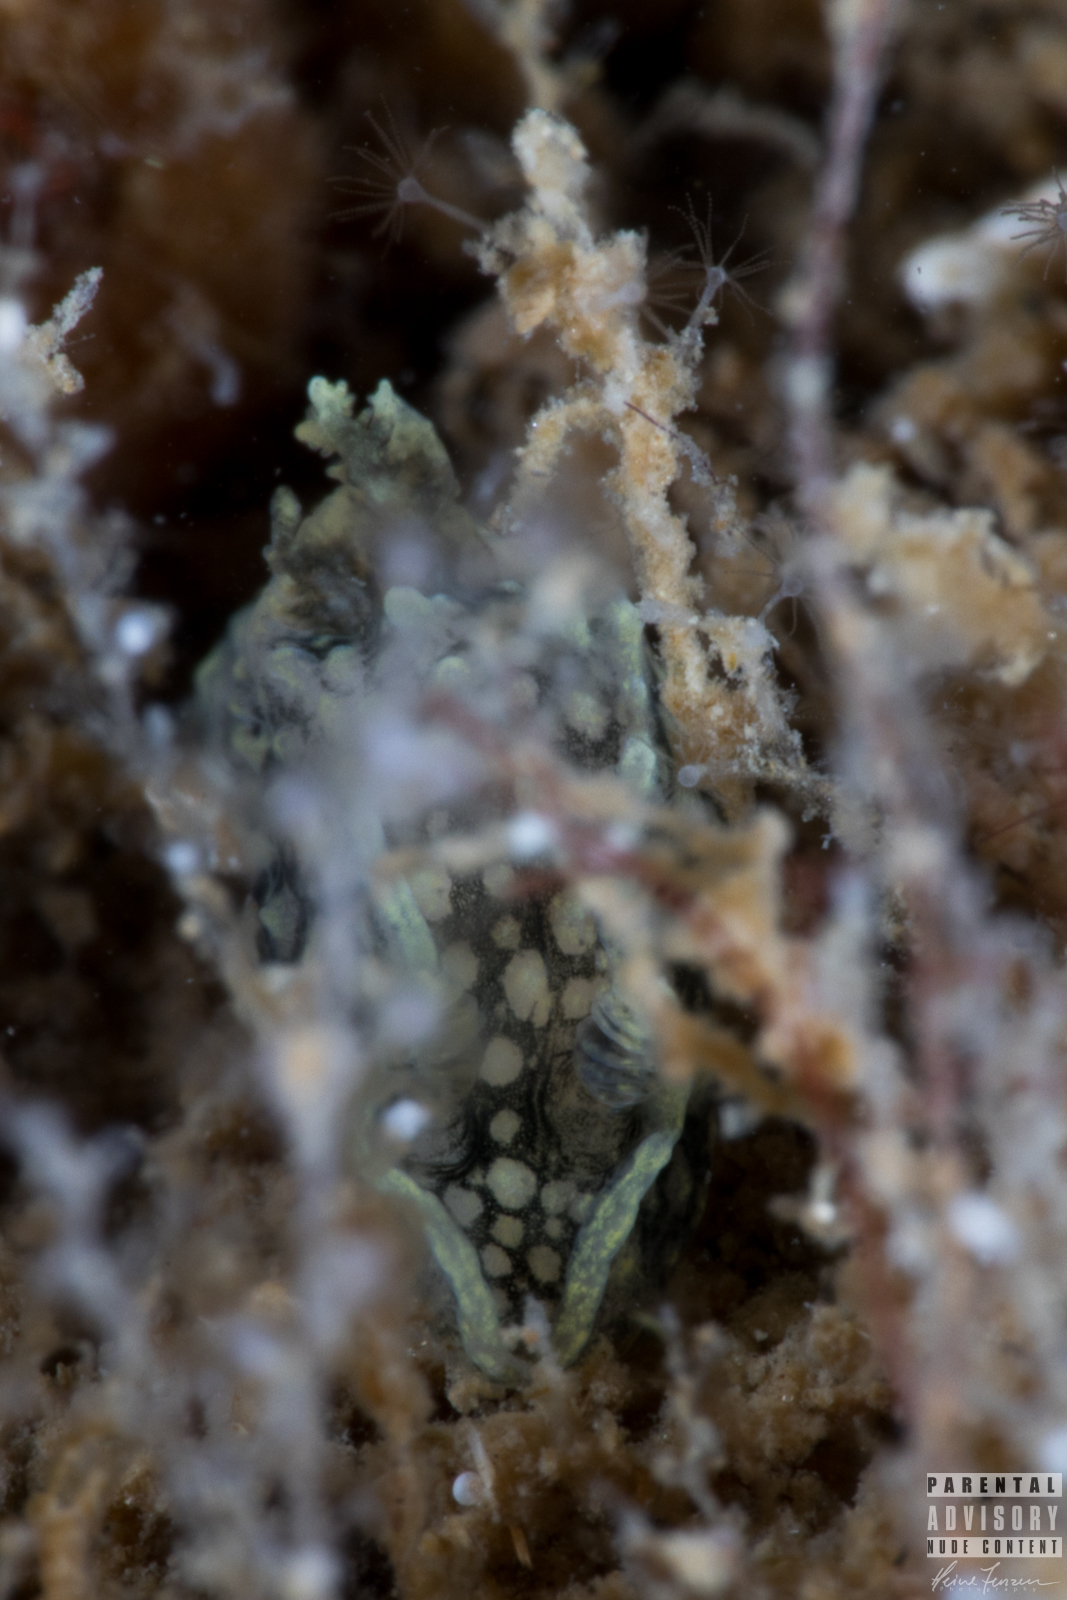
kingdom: Animalia
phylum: Mollusca
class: Gastropoda
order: Nudibranchia
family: Polyceridae
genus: Palio
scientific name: Palio nothus
